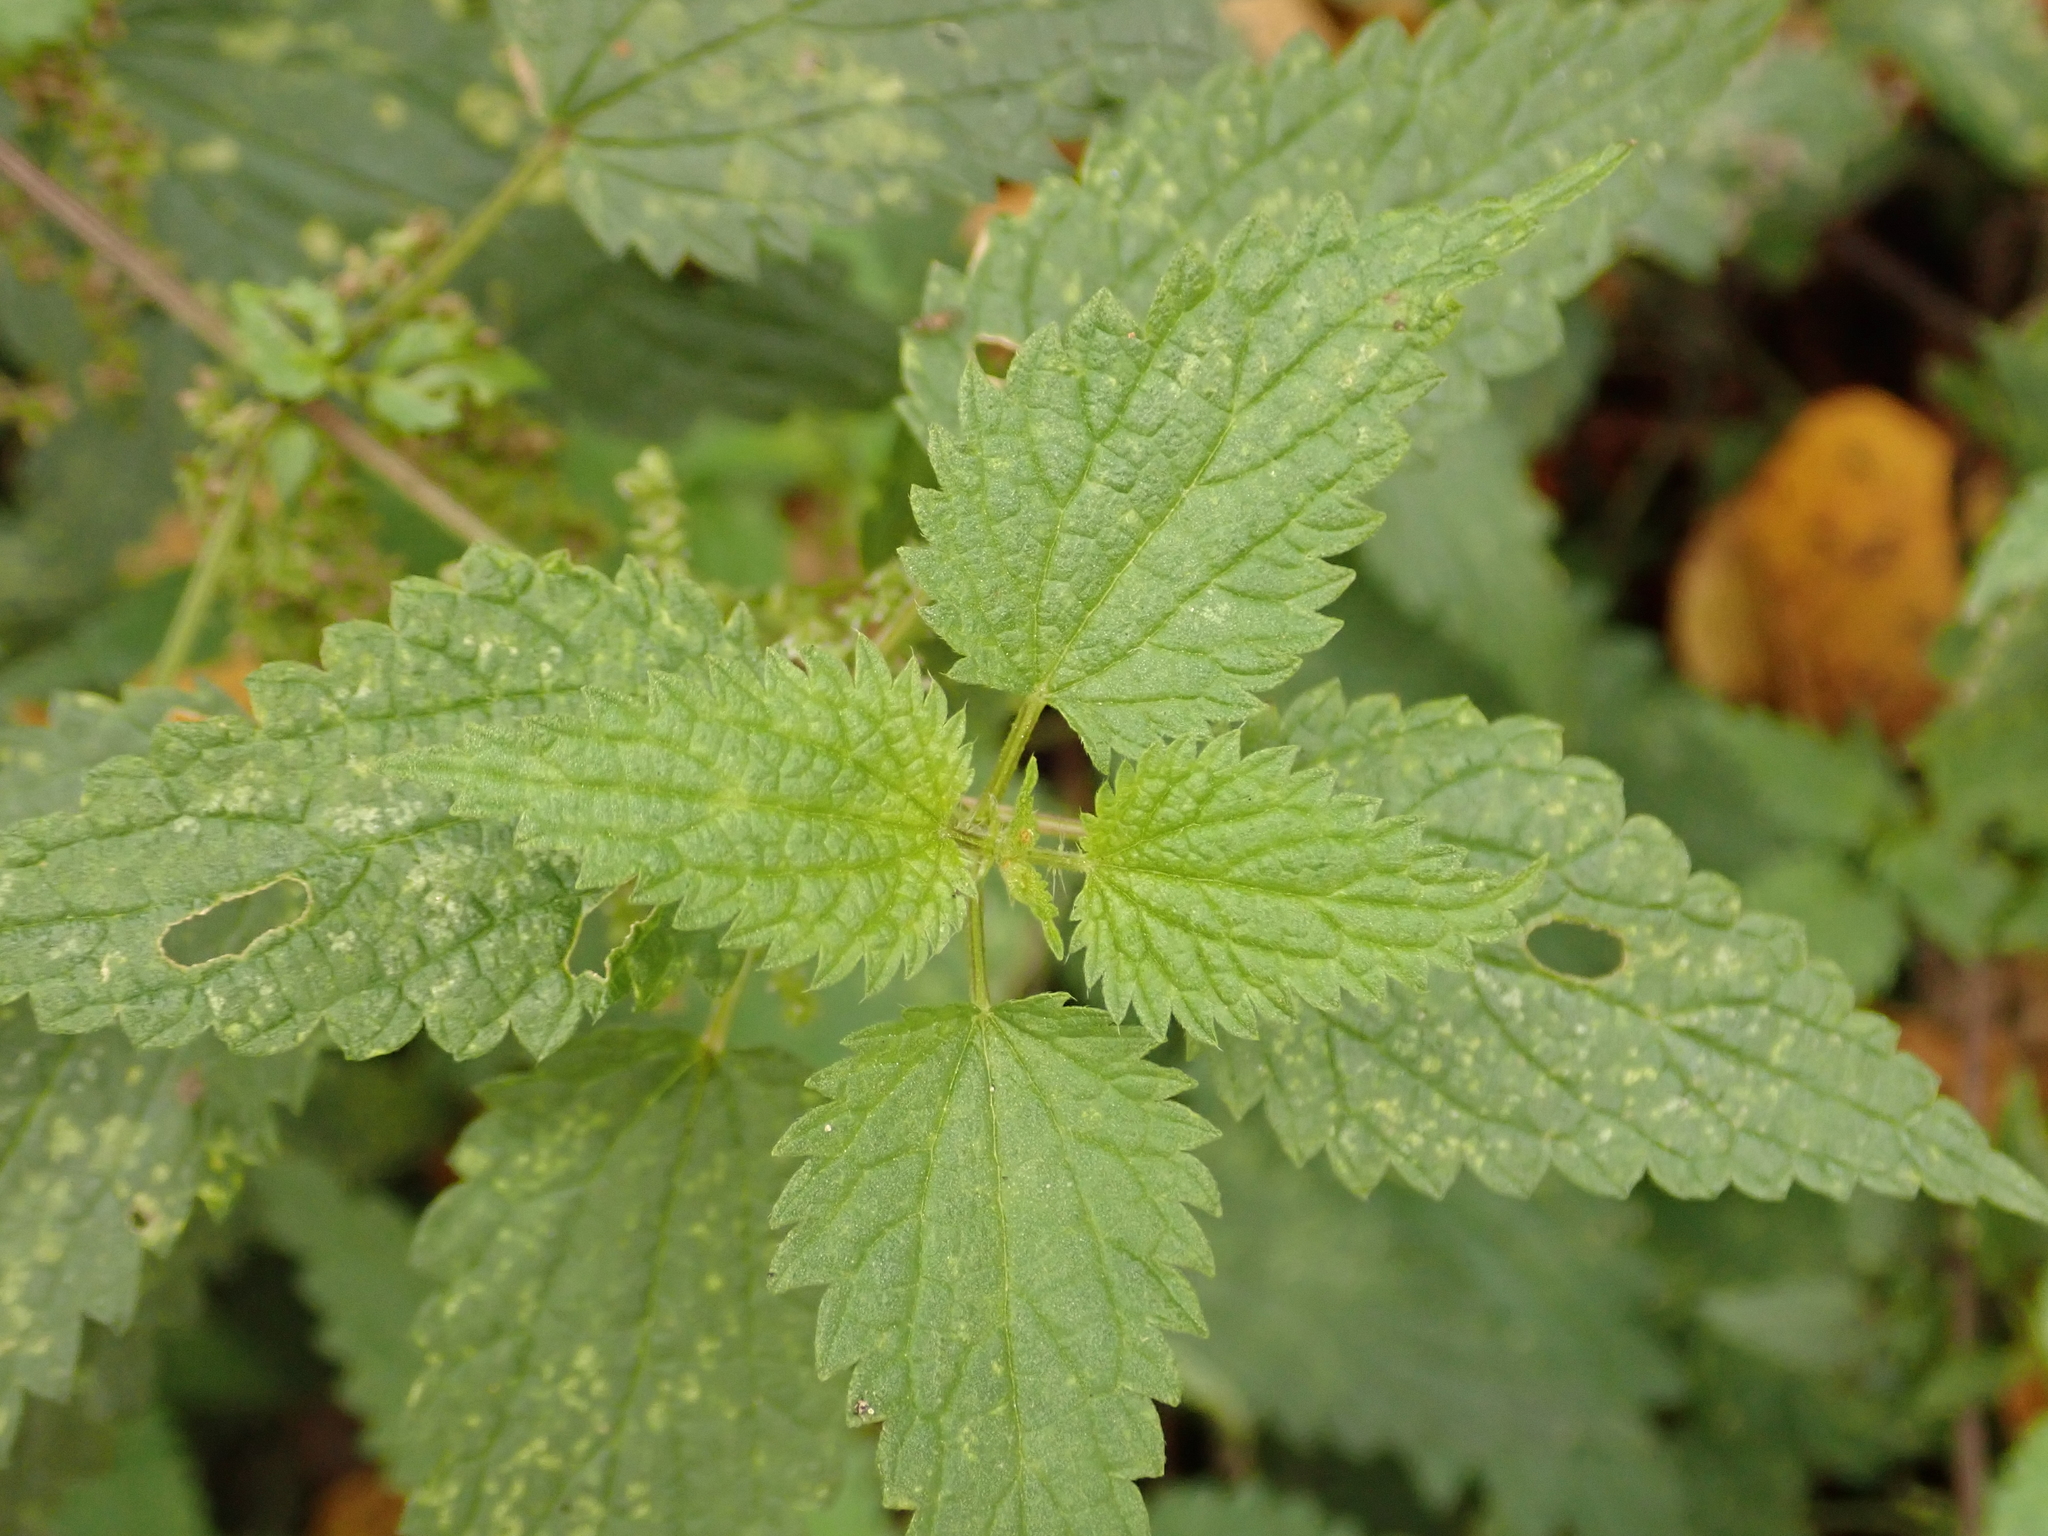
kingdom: Plantae
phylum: Tracheophyta
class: Magnoliopsida
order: Rosales
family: Urticaceae
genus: Urtica
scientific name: Urtica dioica
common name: Common nettle
